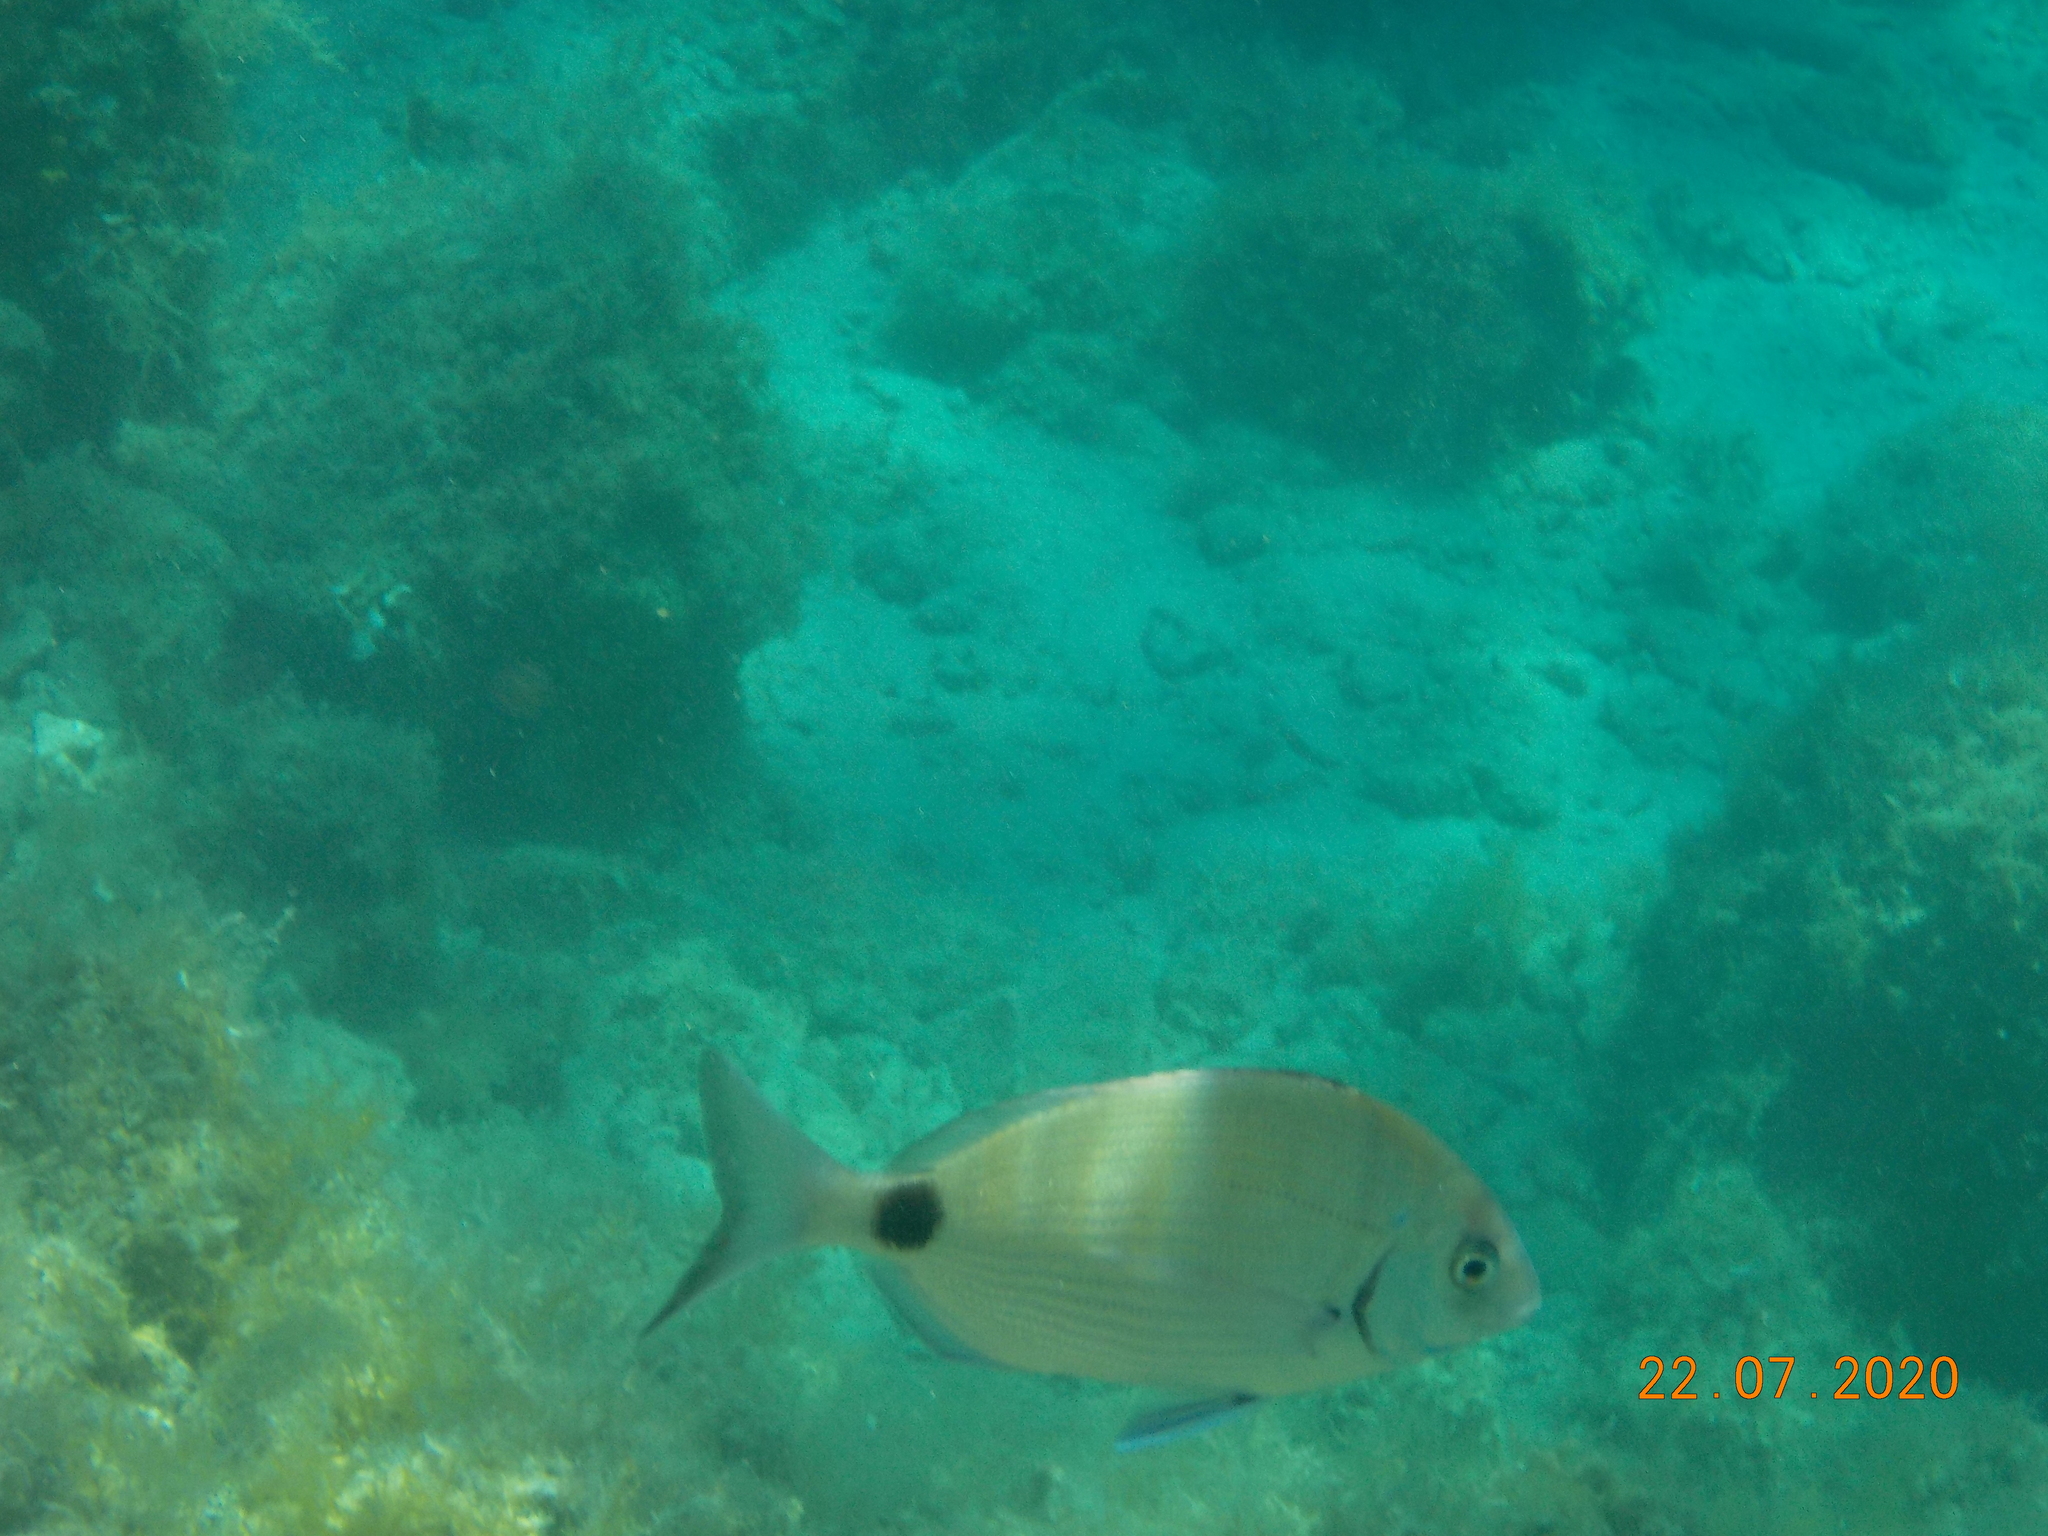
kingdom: Animalia
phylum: Chordata
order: Perciformes
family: Sparidae
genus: Diplodus
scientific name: Diplodus sargus
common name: White seabream
